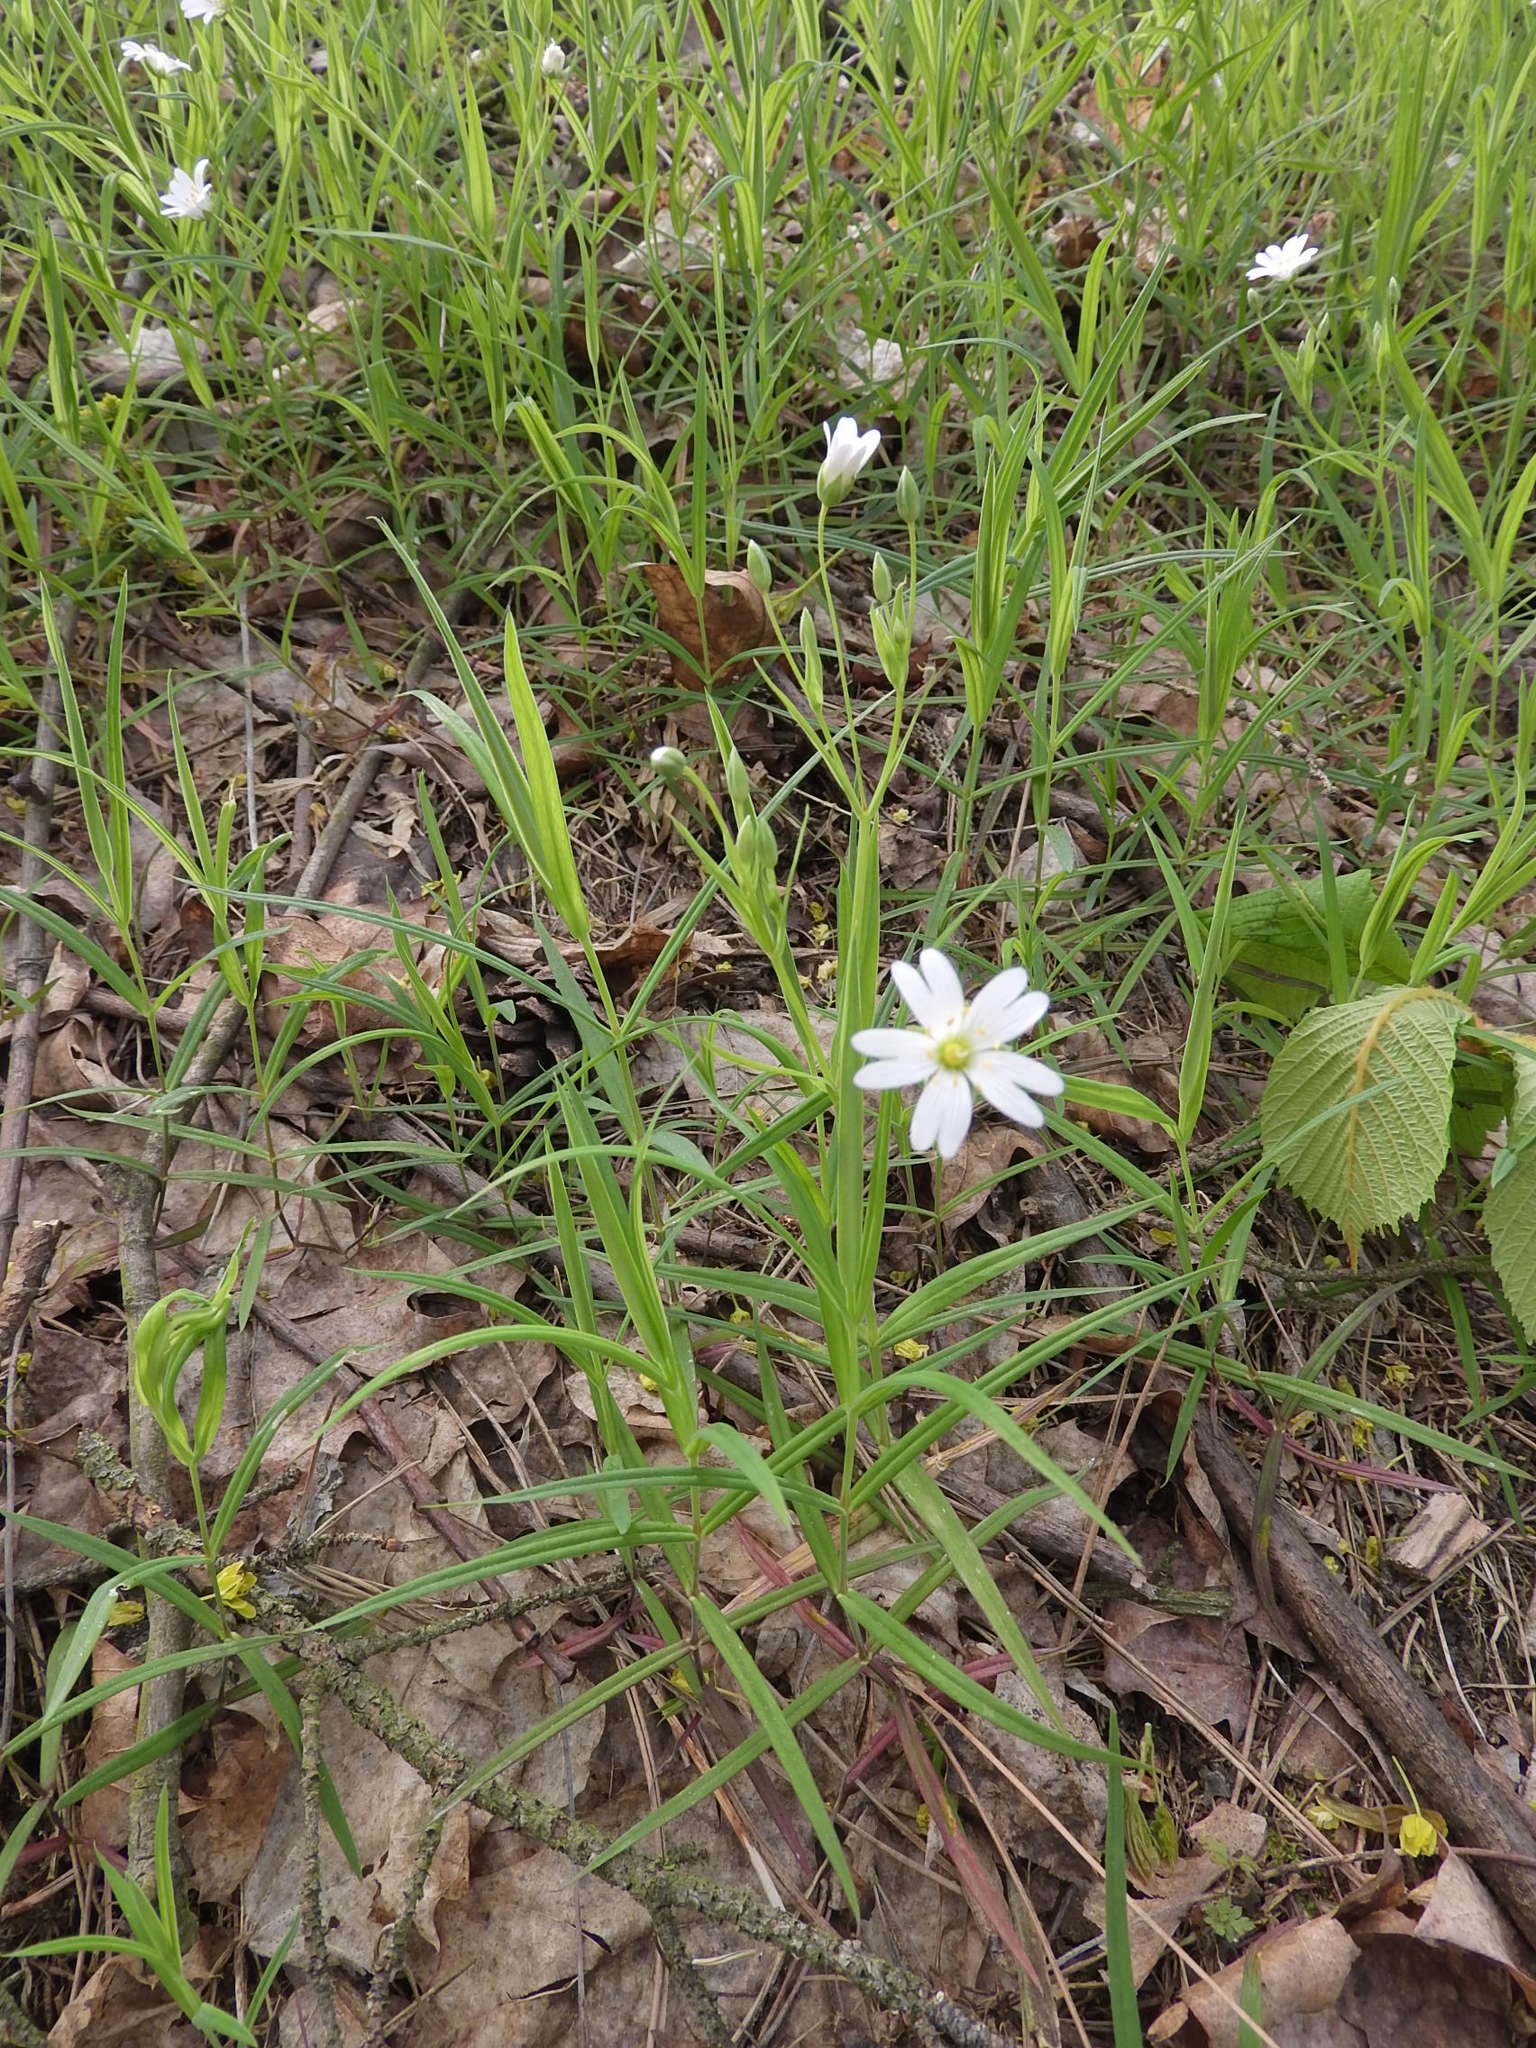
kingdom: Plantae
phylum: Tracheophyta
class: Magnoliopsida
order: Caryophyllales
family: Caryophyllaceae
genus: Rabelera
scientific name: Rabelera holostea
